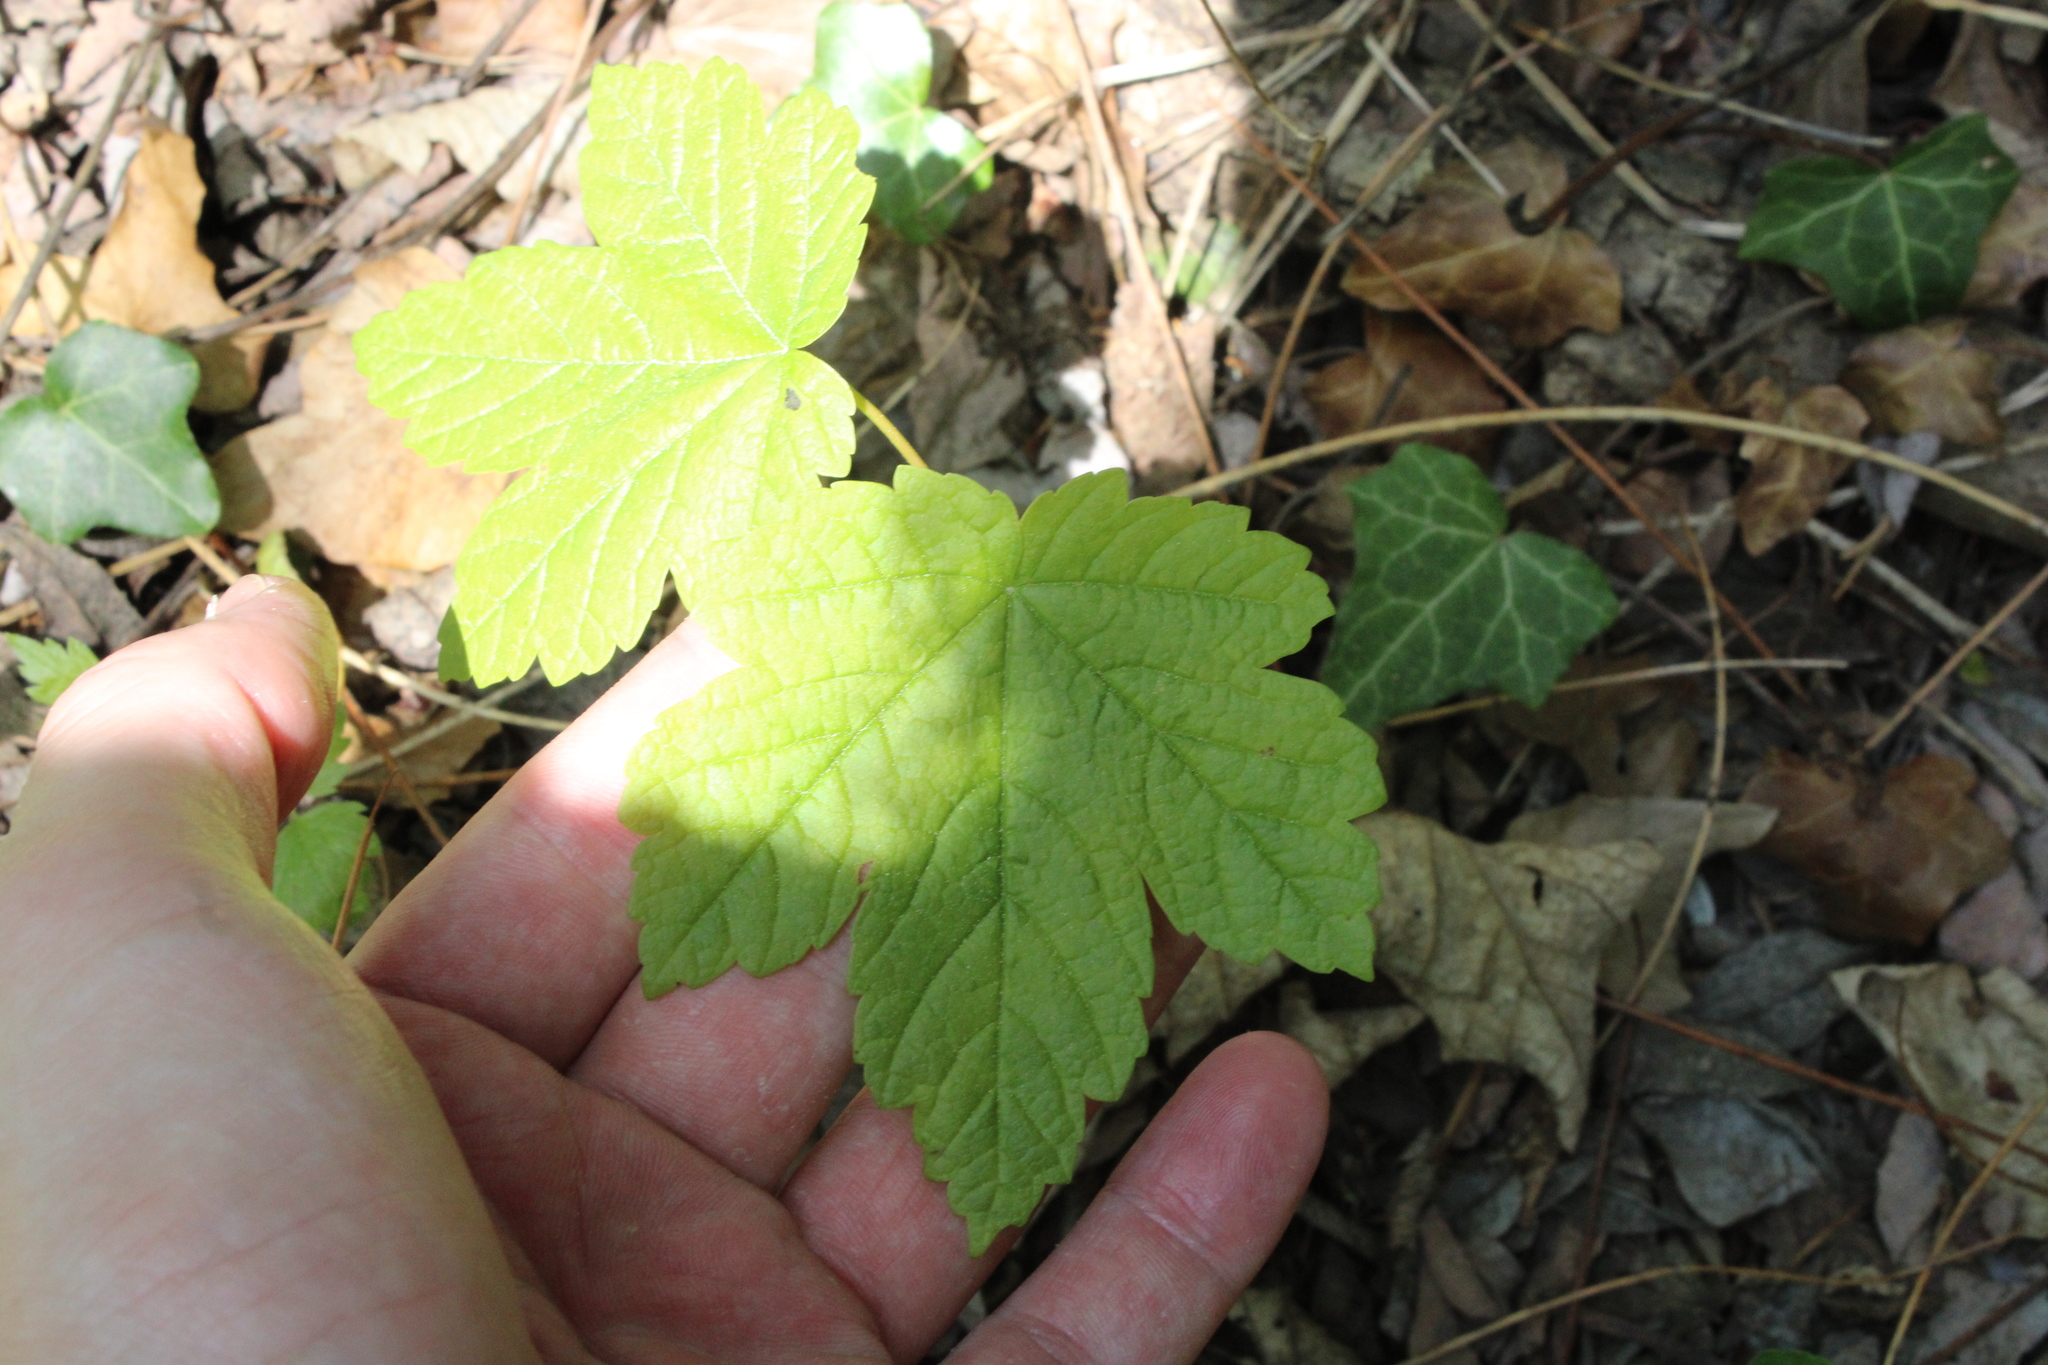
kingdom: Plantae
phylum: Tracheophyta
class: Magnoliopsida
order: Sapindales
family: Sapindaceae
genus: Acer
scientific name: Acer pseudoplatanus
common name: Sycamore
